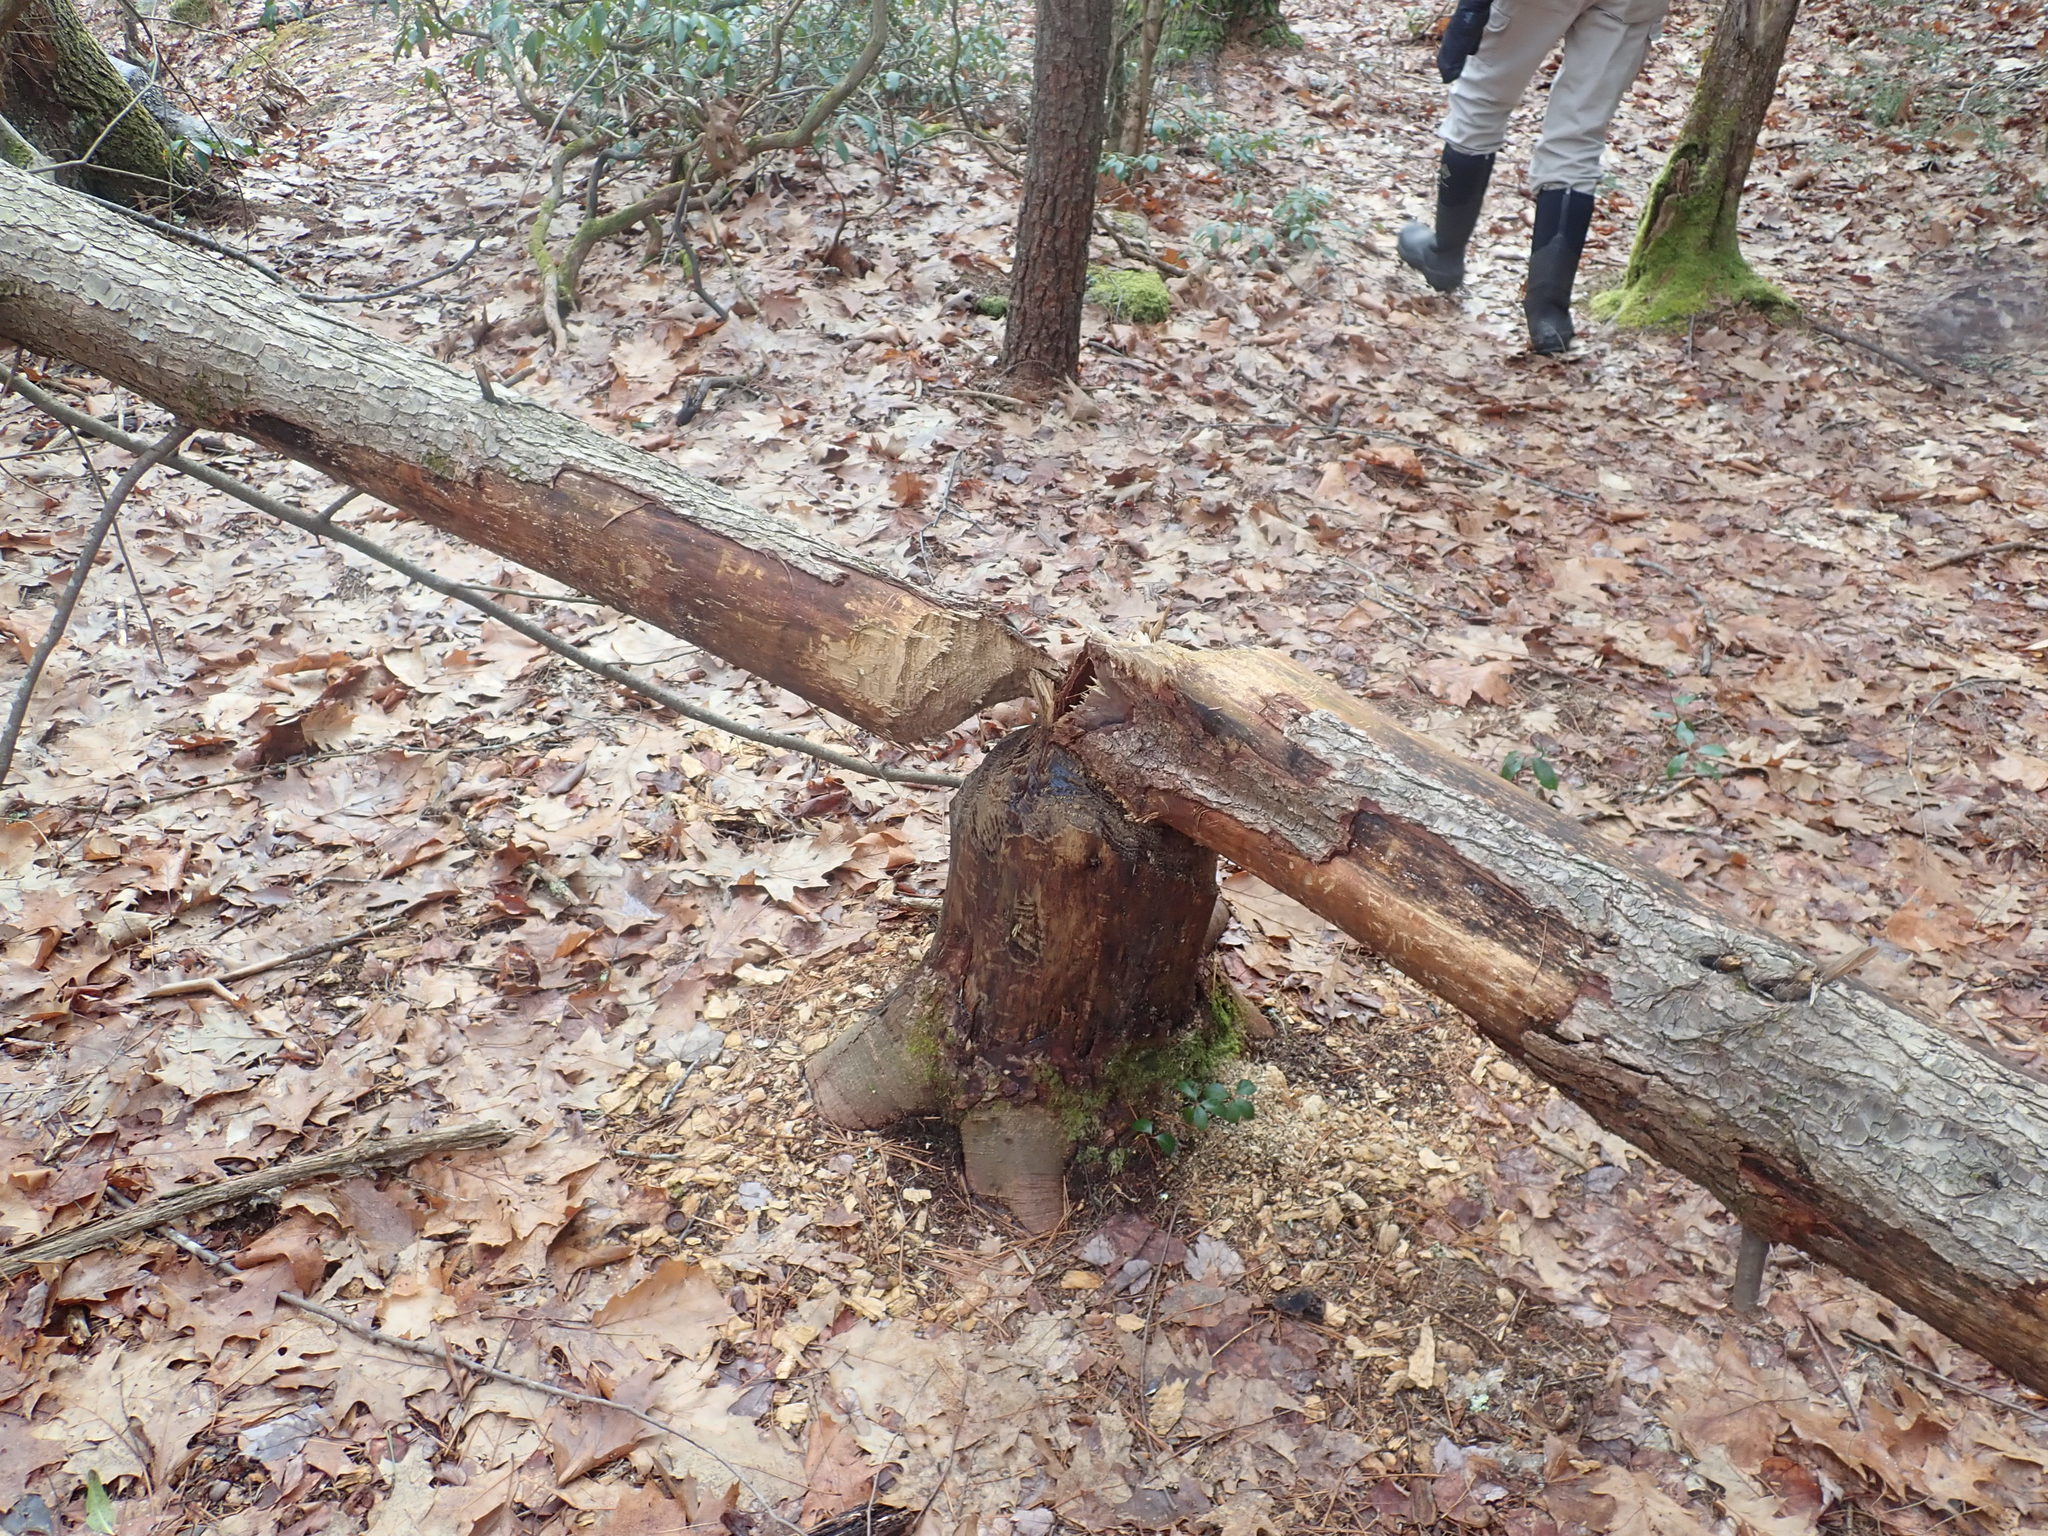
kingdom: Animalia
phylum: Chordata
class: Mammalia
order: Rodentia
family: Castoridae
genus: Castor
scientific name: Castor canadensis
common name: American beaver
